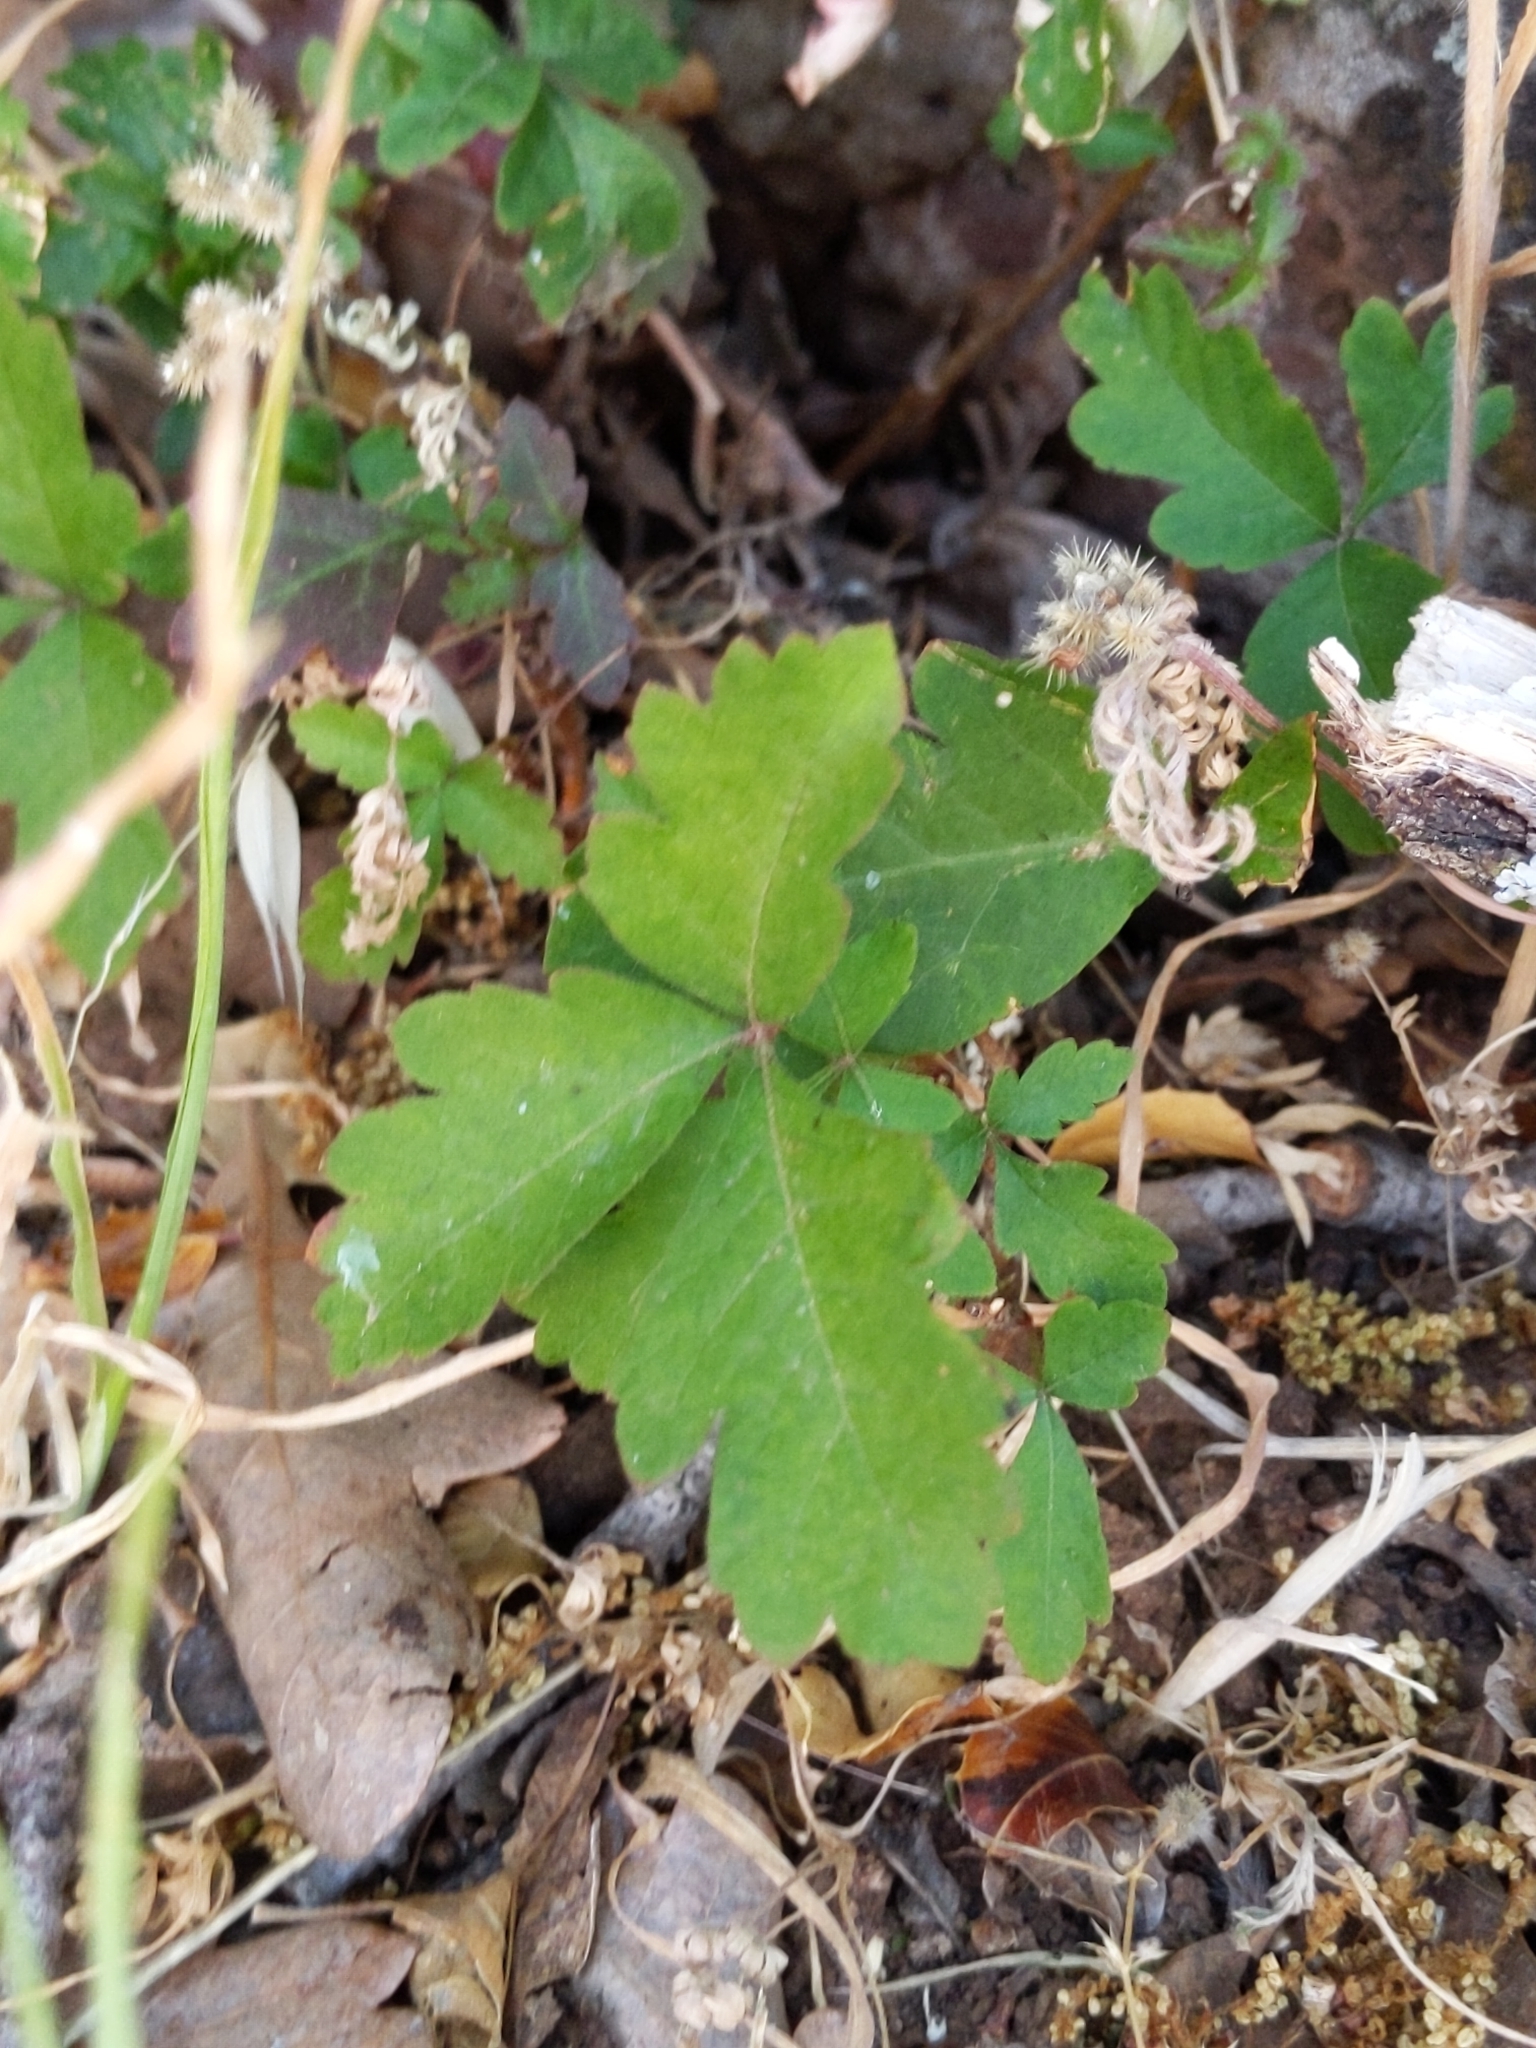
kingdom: Plantae
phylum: Tracheophyta
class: Magnoliopsida
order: Sapindales
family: Anacardiaceae
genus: Toxicodendron
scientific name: Toxicodendron diversilobum
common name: Pacific poison-oak
